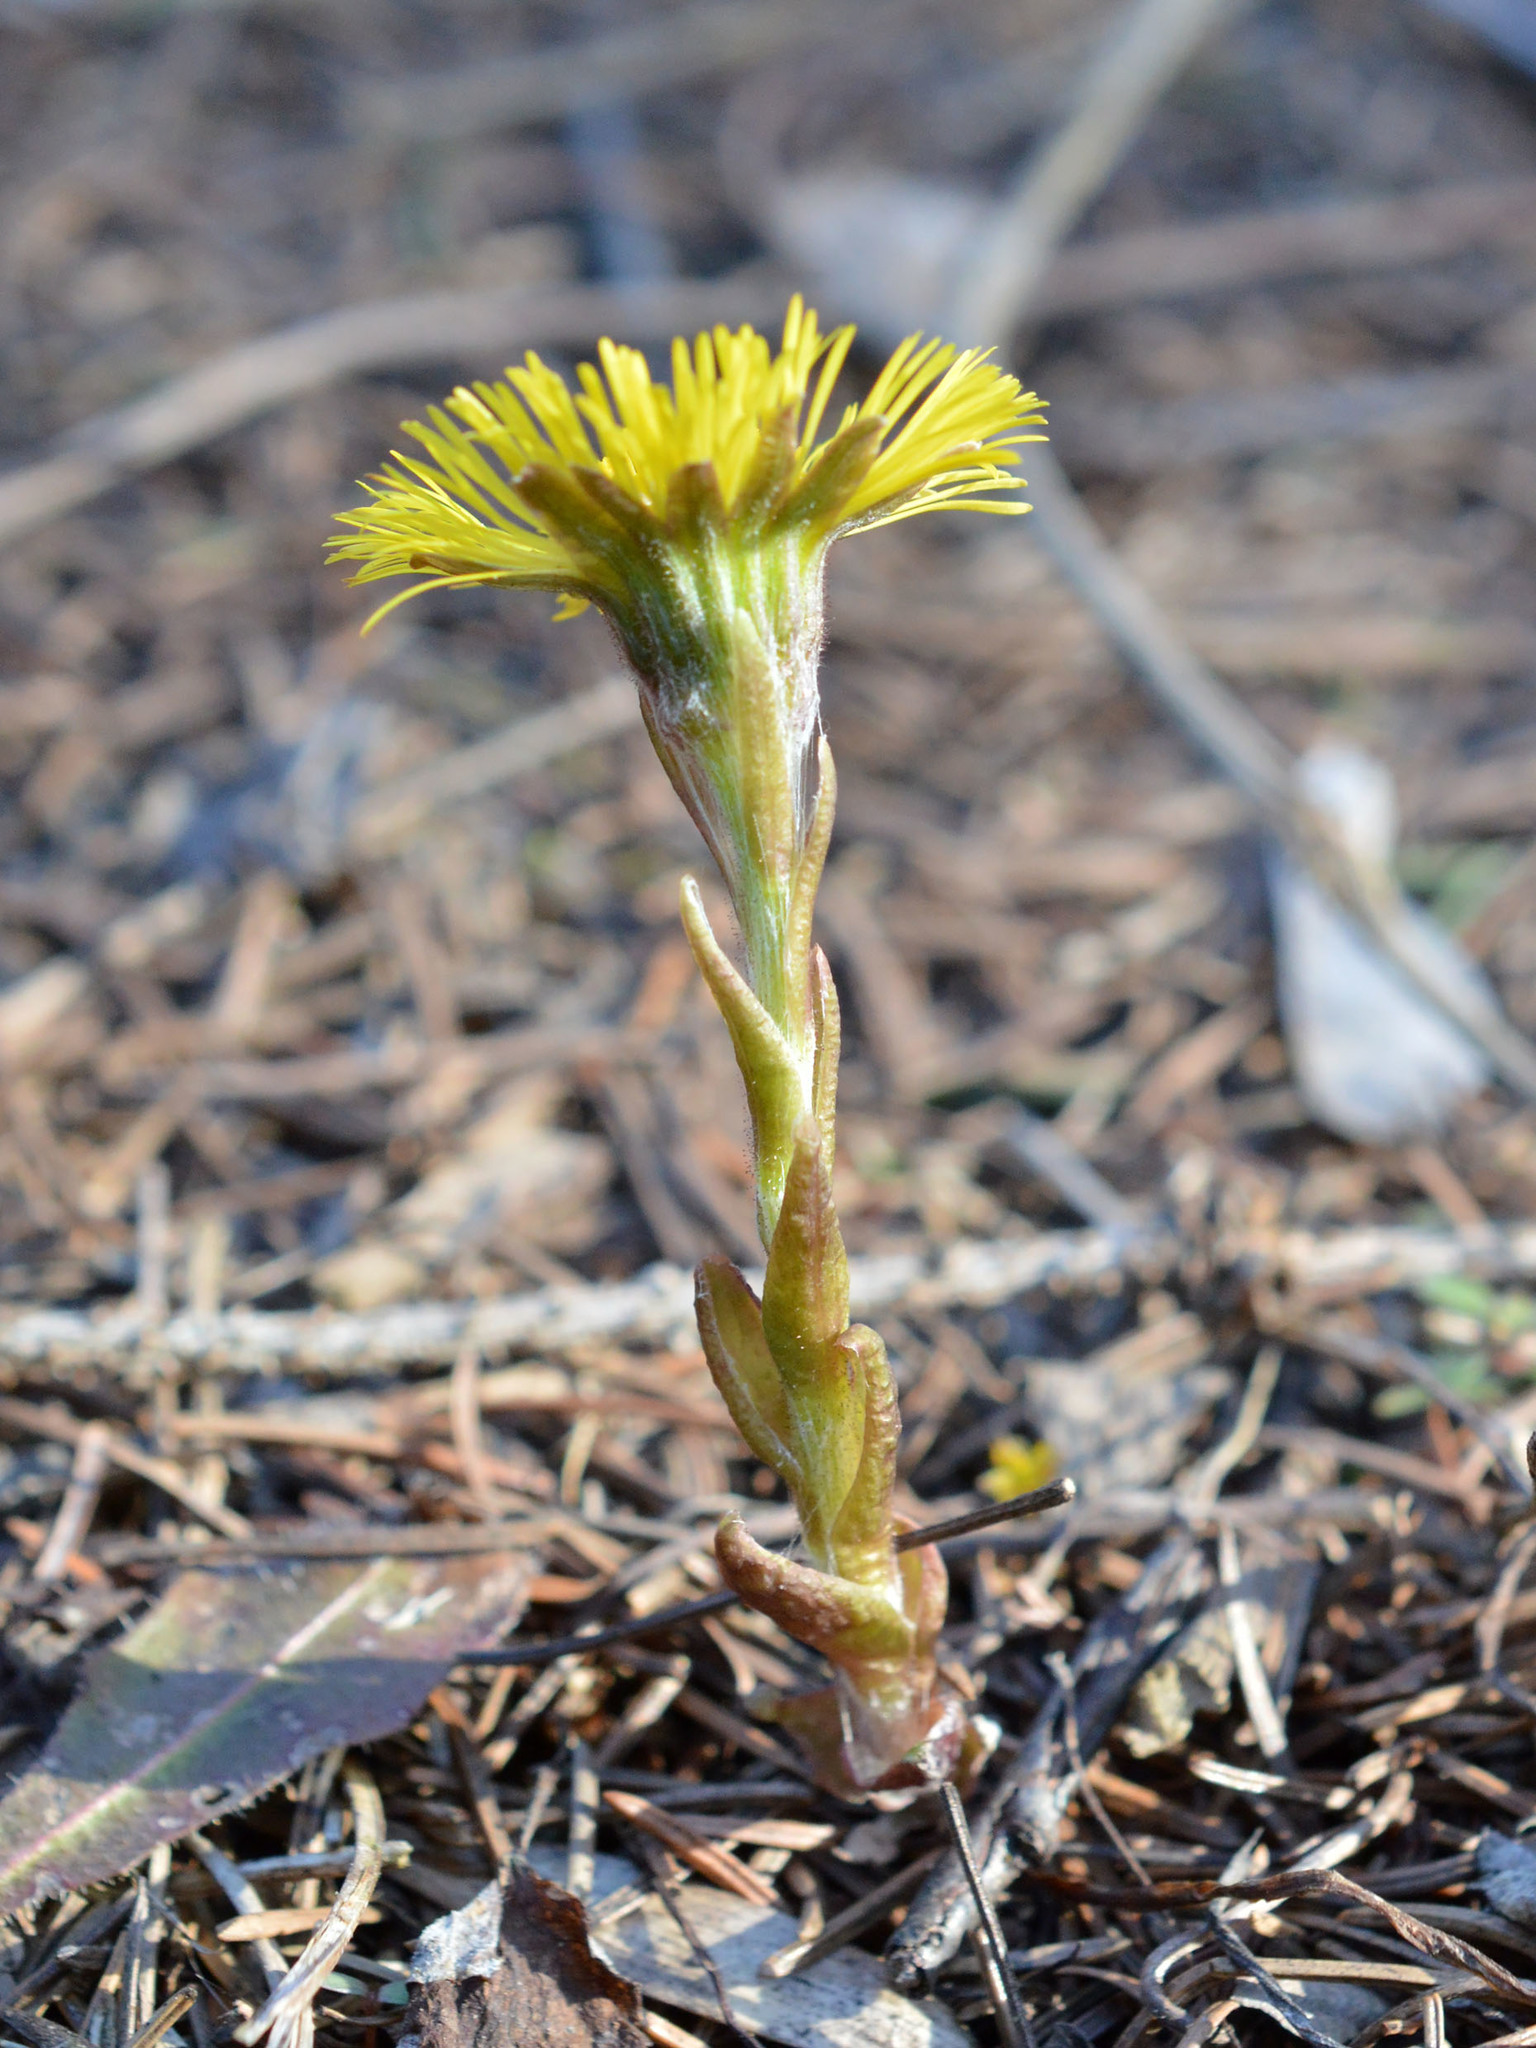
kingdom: Plantae
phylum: Tracheophyta
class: Magnoliopsida
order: Asterales
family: Asteraceae
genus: Tussilago
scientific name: Tussilago farfara
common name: Coltsfoot
